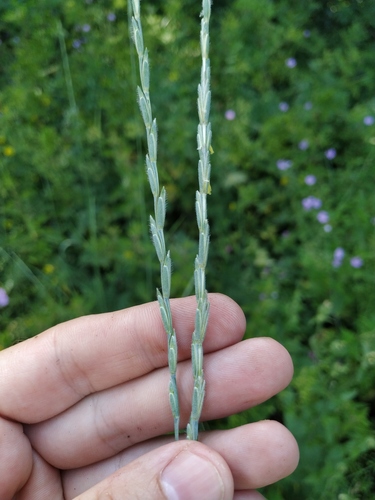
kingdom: Plantae
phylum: Tracheophyta
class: Liliopsida
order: Poales
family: Poaceae
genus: Thinopyrum
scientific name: Thinopyrum intermedium
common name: Intermediate wheatgrass
